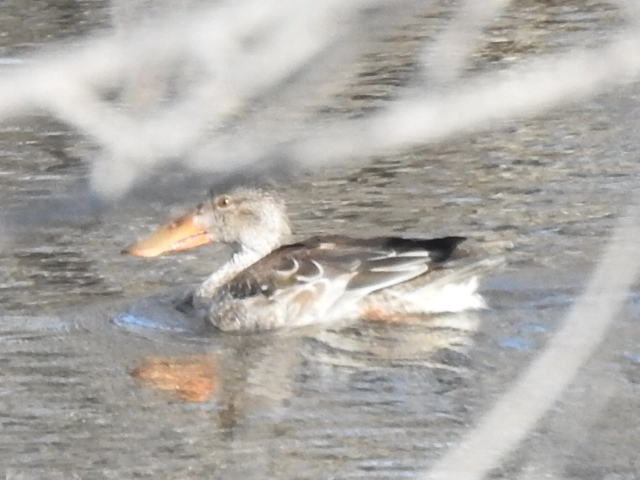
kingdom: Animalia
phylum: Chordata
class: Aves
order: Anseriformes
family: Anatidae
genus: Spatula
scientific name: Spatula clypeata
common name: Northern shoveler
